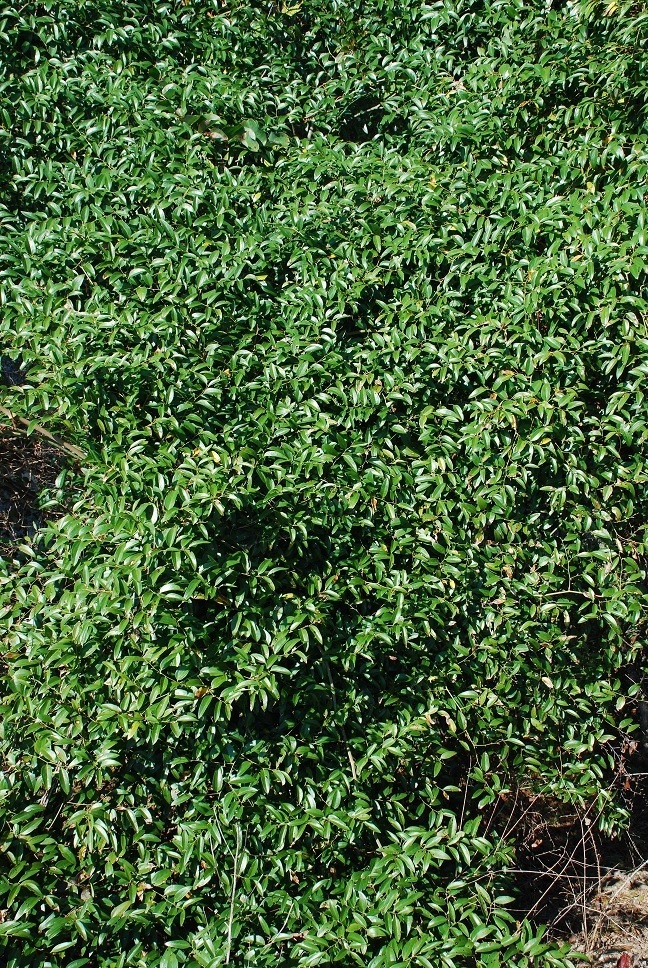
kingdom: Plantae
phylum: Tracheophyta
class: Liliopsida
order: Liliales
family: Smilacaceae
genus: Smilax
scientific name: Smilax maritima
